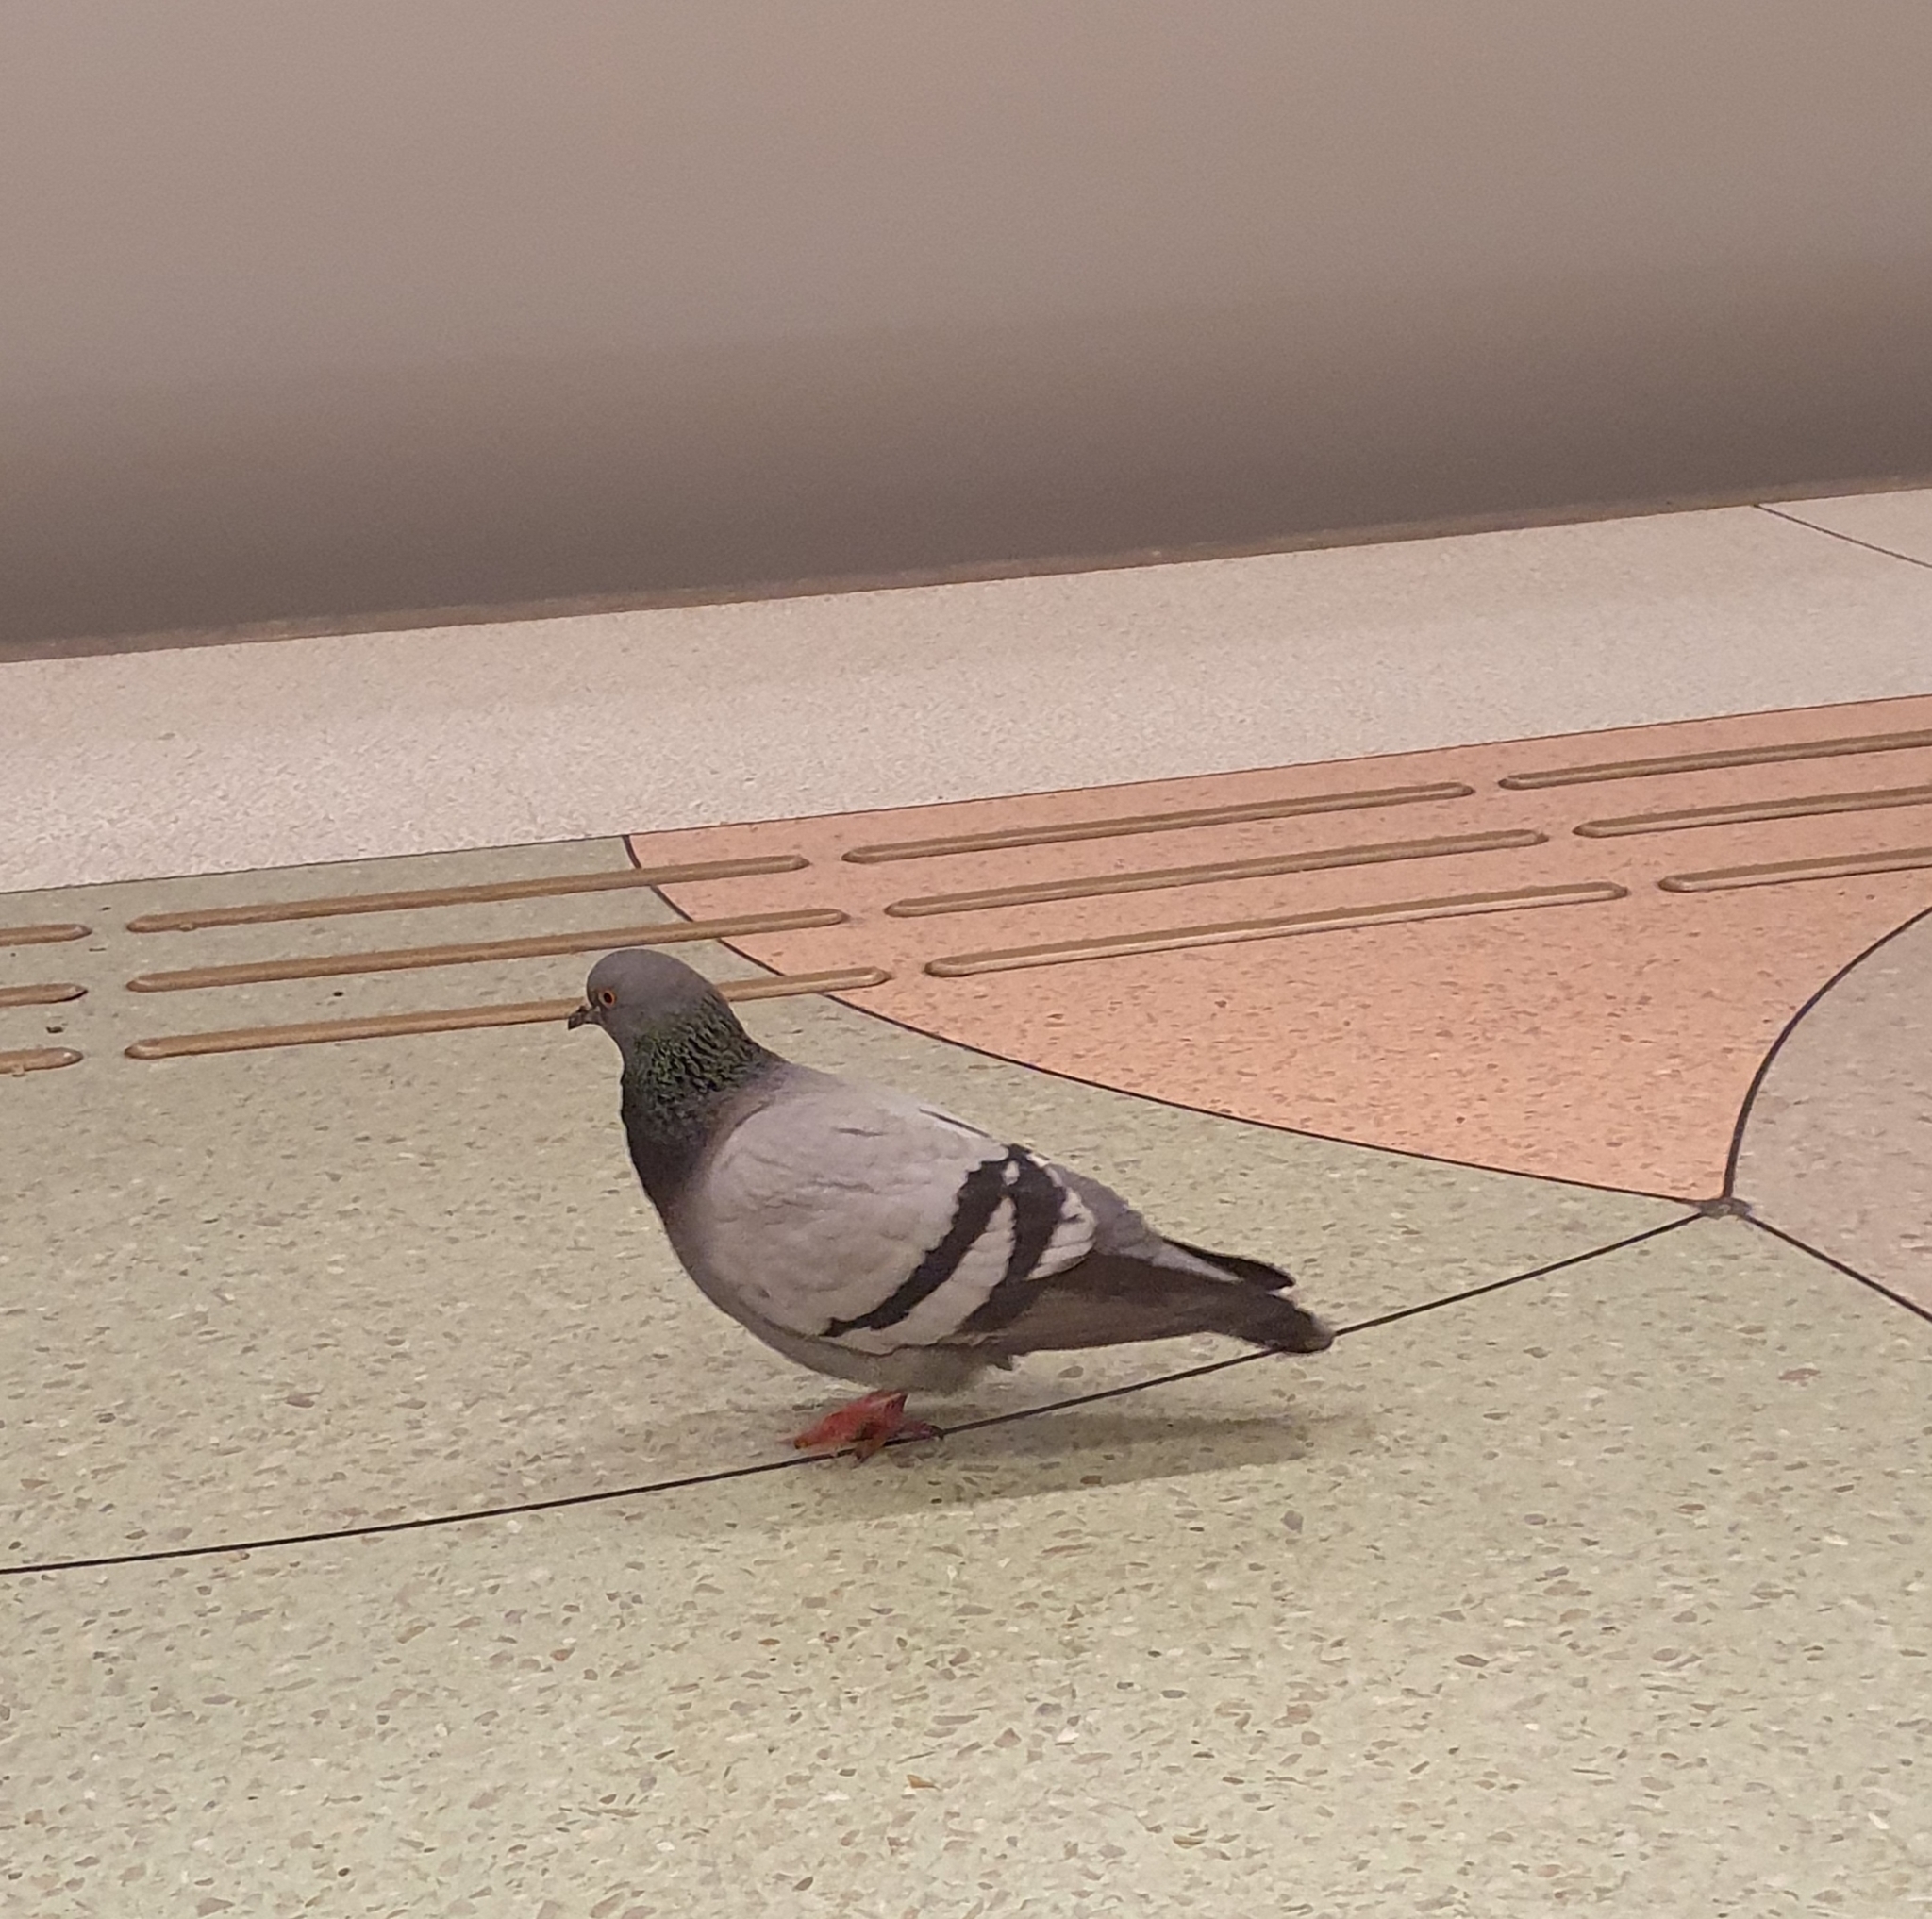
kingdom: Animalia
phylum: Chordata
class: Aves
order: Columbiformes
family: Columbidae
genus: Columba
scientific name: Columba livia
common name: Rock pigeon
